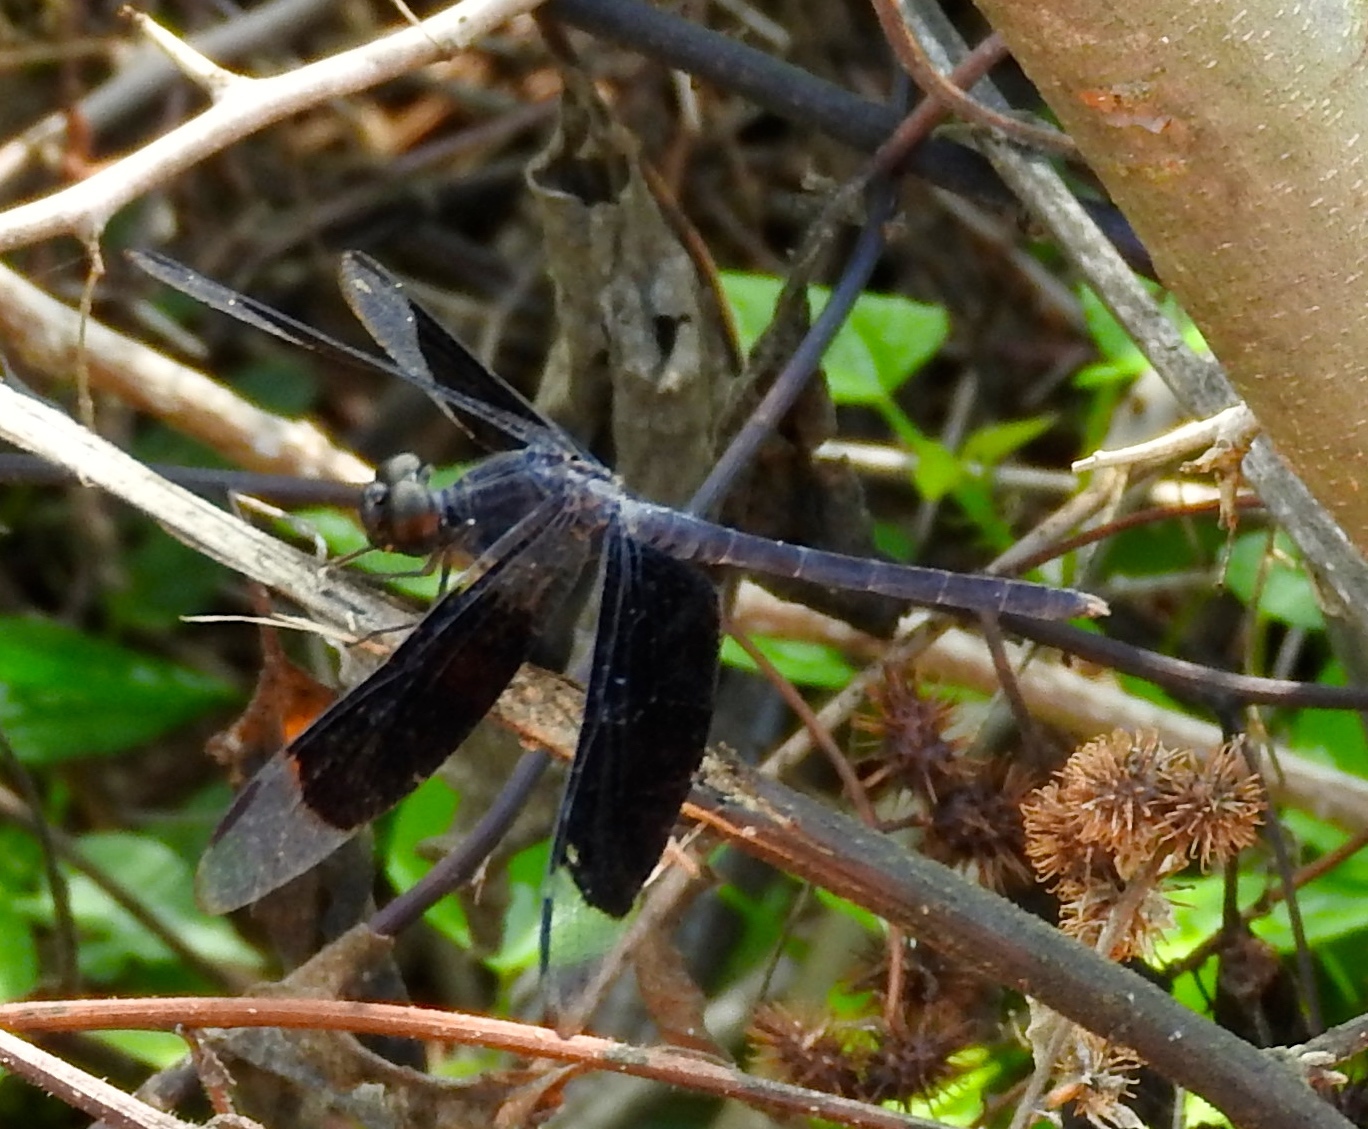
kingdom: Animalia
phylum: Arthropoda
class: Insecta
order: Odonata
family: Libellulidae
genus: Erythrodiplax
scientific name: Erythrodiplax funerea
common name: Black-winged dragonlet
